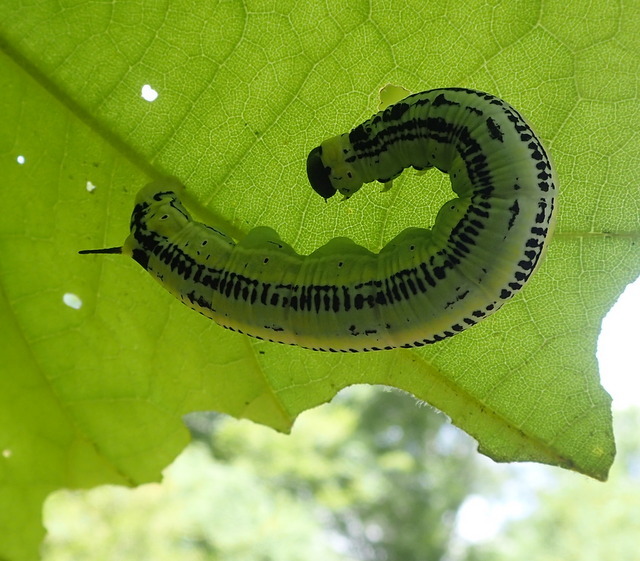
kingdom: Animalia
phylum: Arthropoda
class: Insecta
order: Lepidoptera
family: Sphingidae
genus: Ceratomia
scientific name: Ceratomia catalpae
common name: Catalpa hornworm
